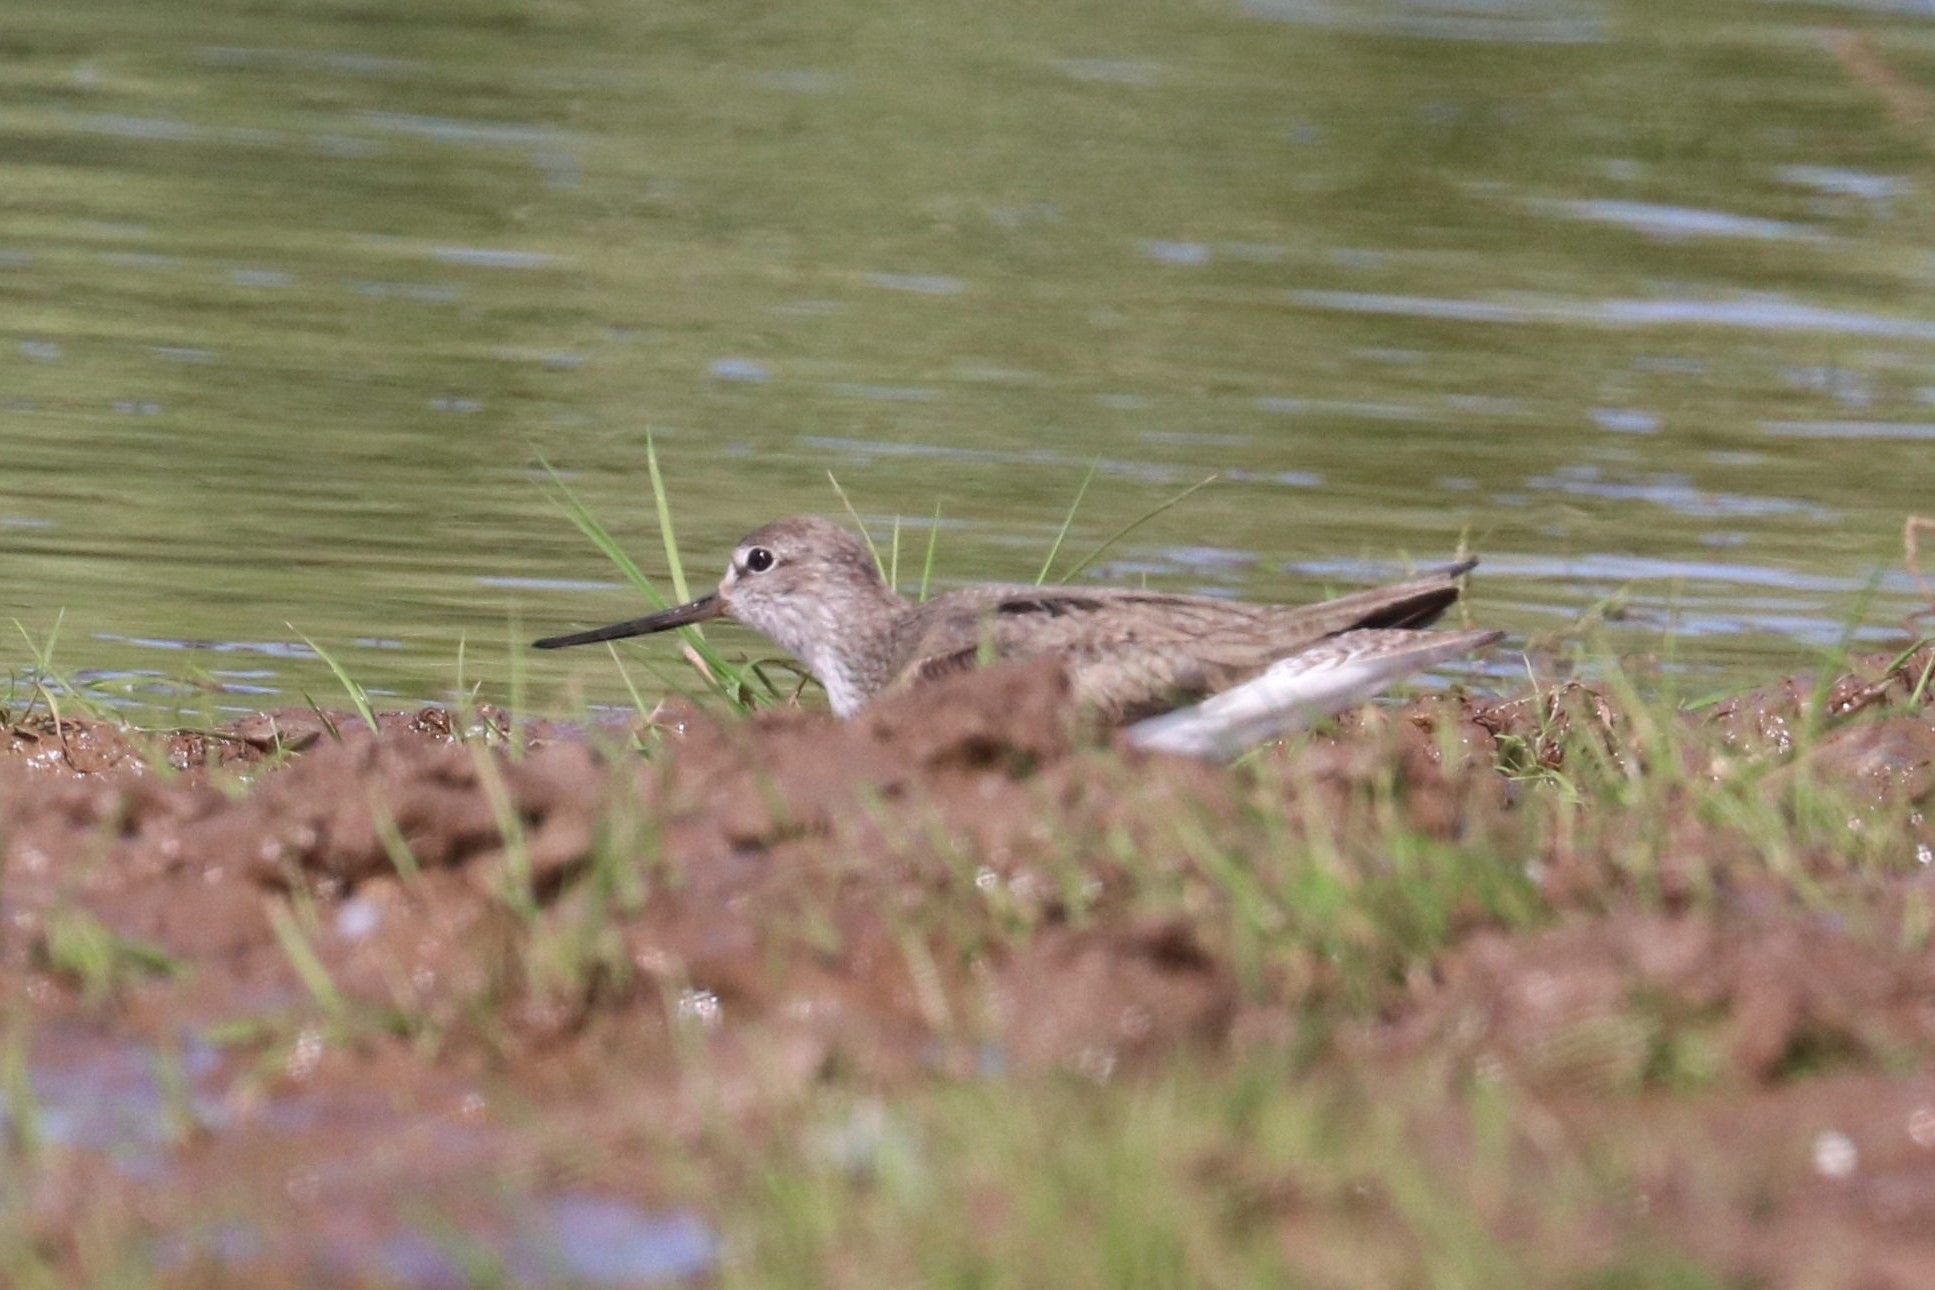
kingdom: Animalia
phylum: Chordata
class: Aves
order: Charadriiformes
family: Scolopacidae
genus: Xenus
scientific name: Xenus cinereus
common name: Terek sandpiper
